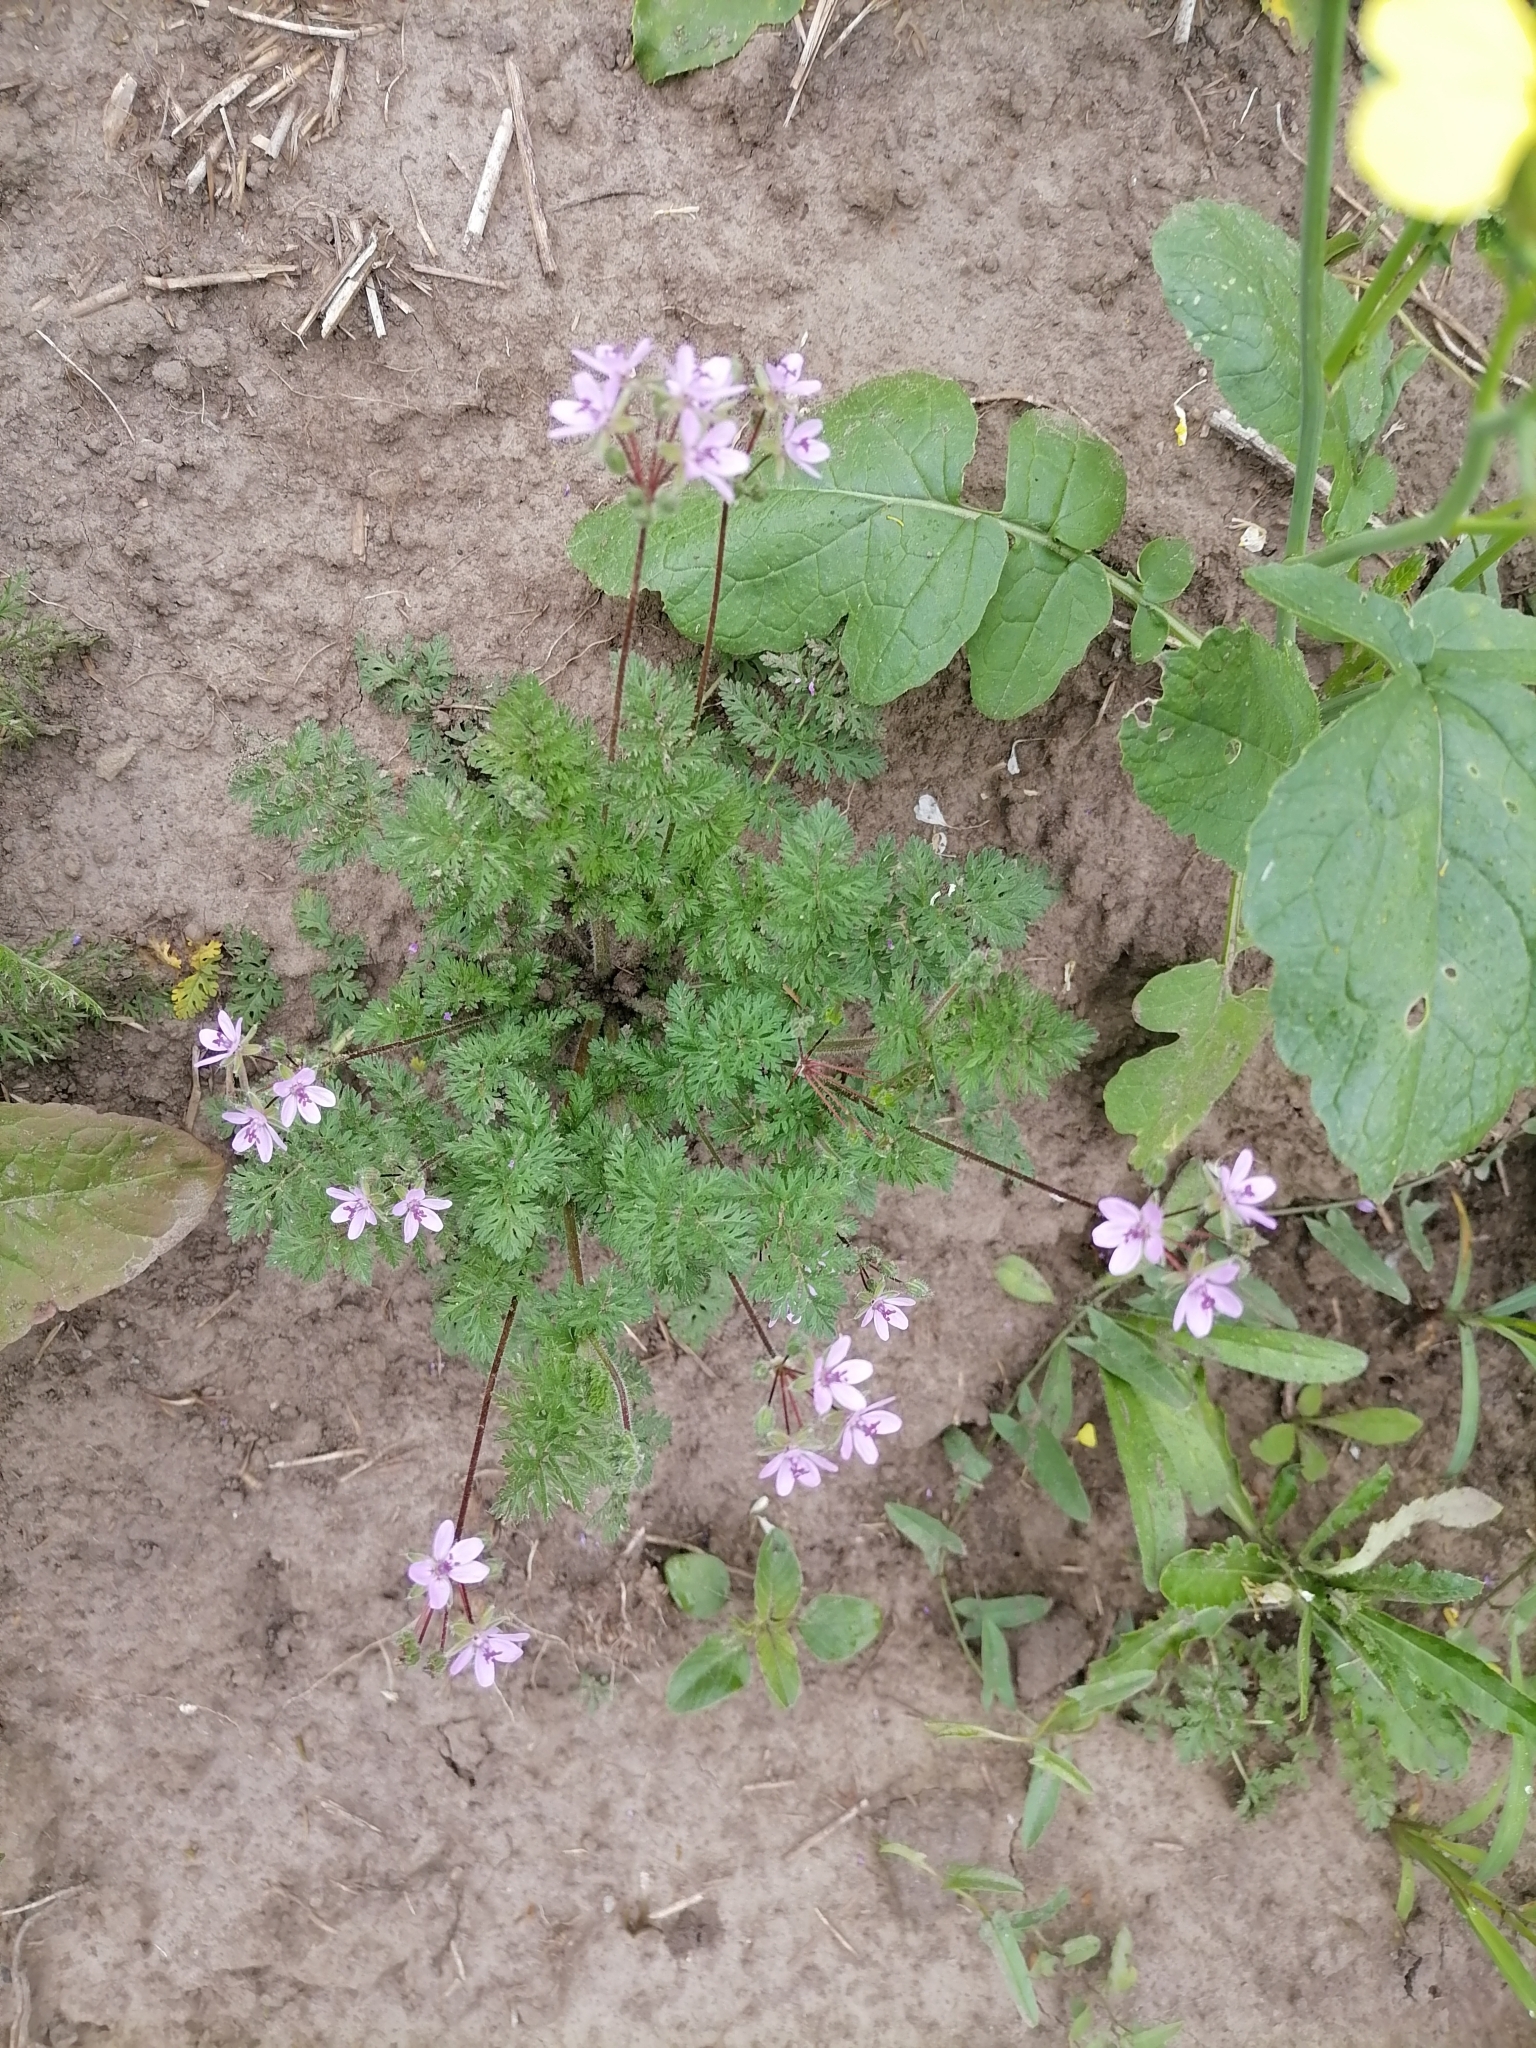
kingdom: Plantae
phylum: Tracheophyta
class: Magnoliopsida
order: Geraniales
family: Geraniaceae
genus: Erodium
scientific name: Erodium cicutarium
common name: Common stork's-bill
